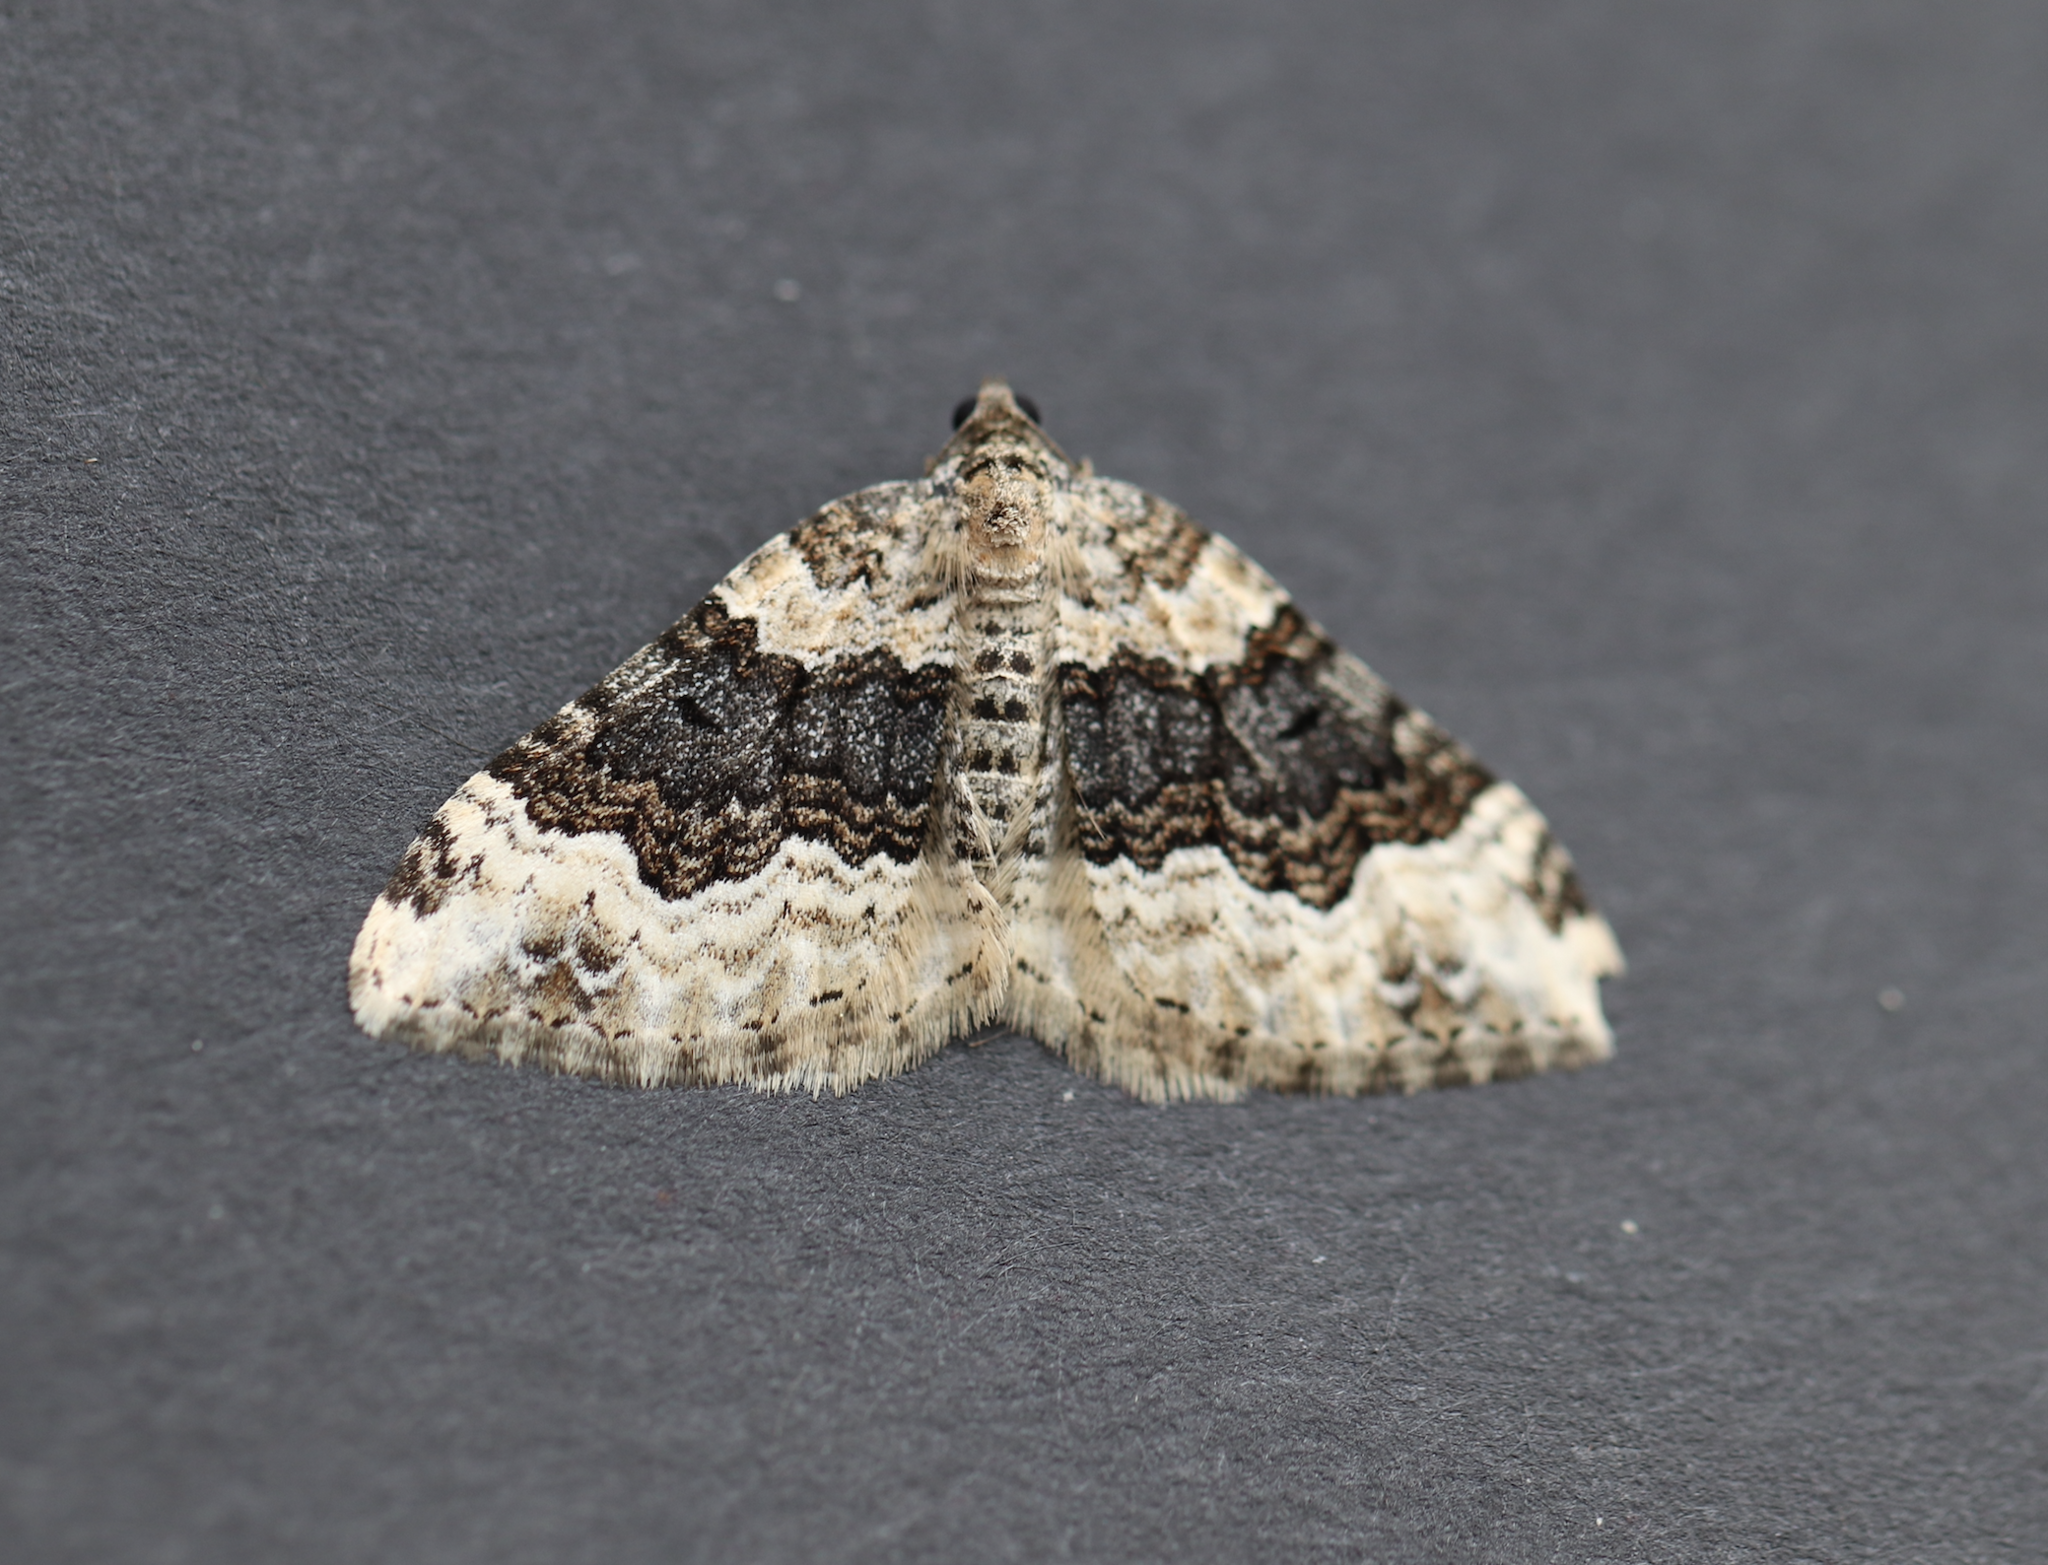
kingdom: Animalia
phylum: Arthropoda
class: Insecta
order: Lepidoptera
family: Geometridae
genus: Epirrhoe
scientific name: Epirrhoe galiata
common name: Galium carpet
